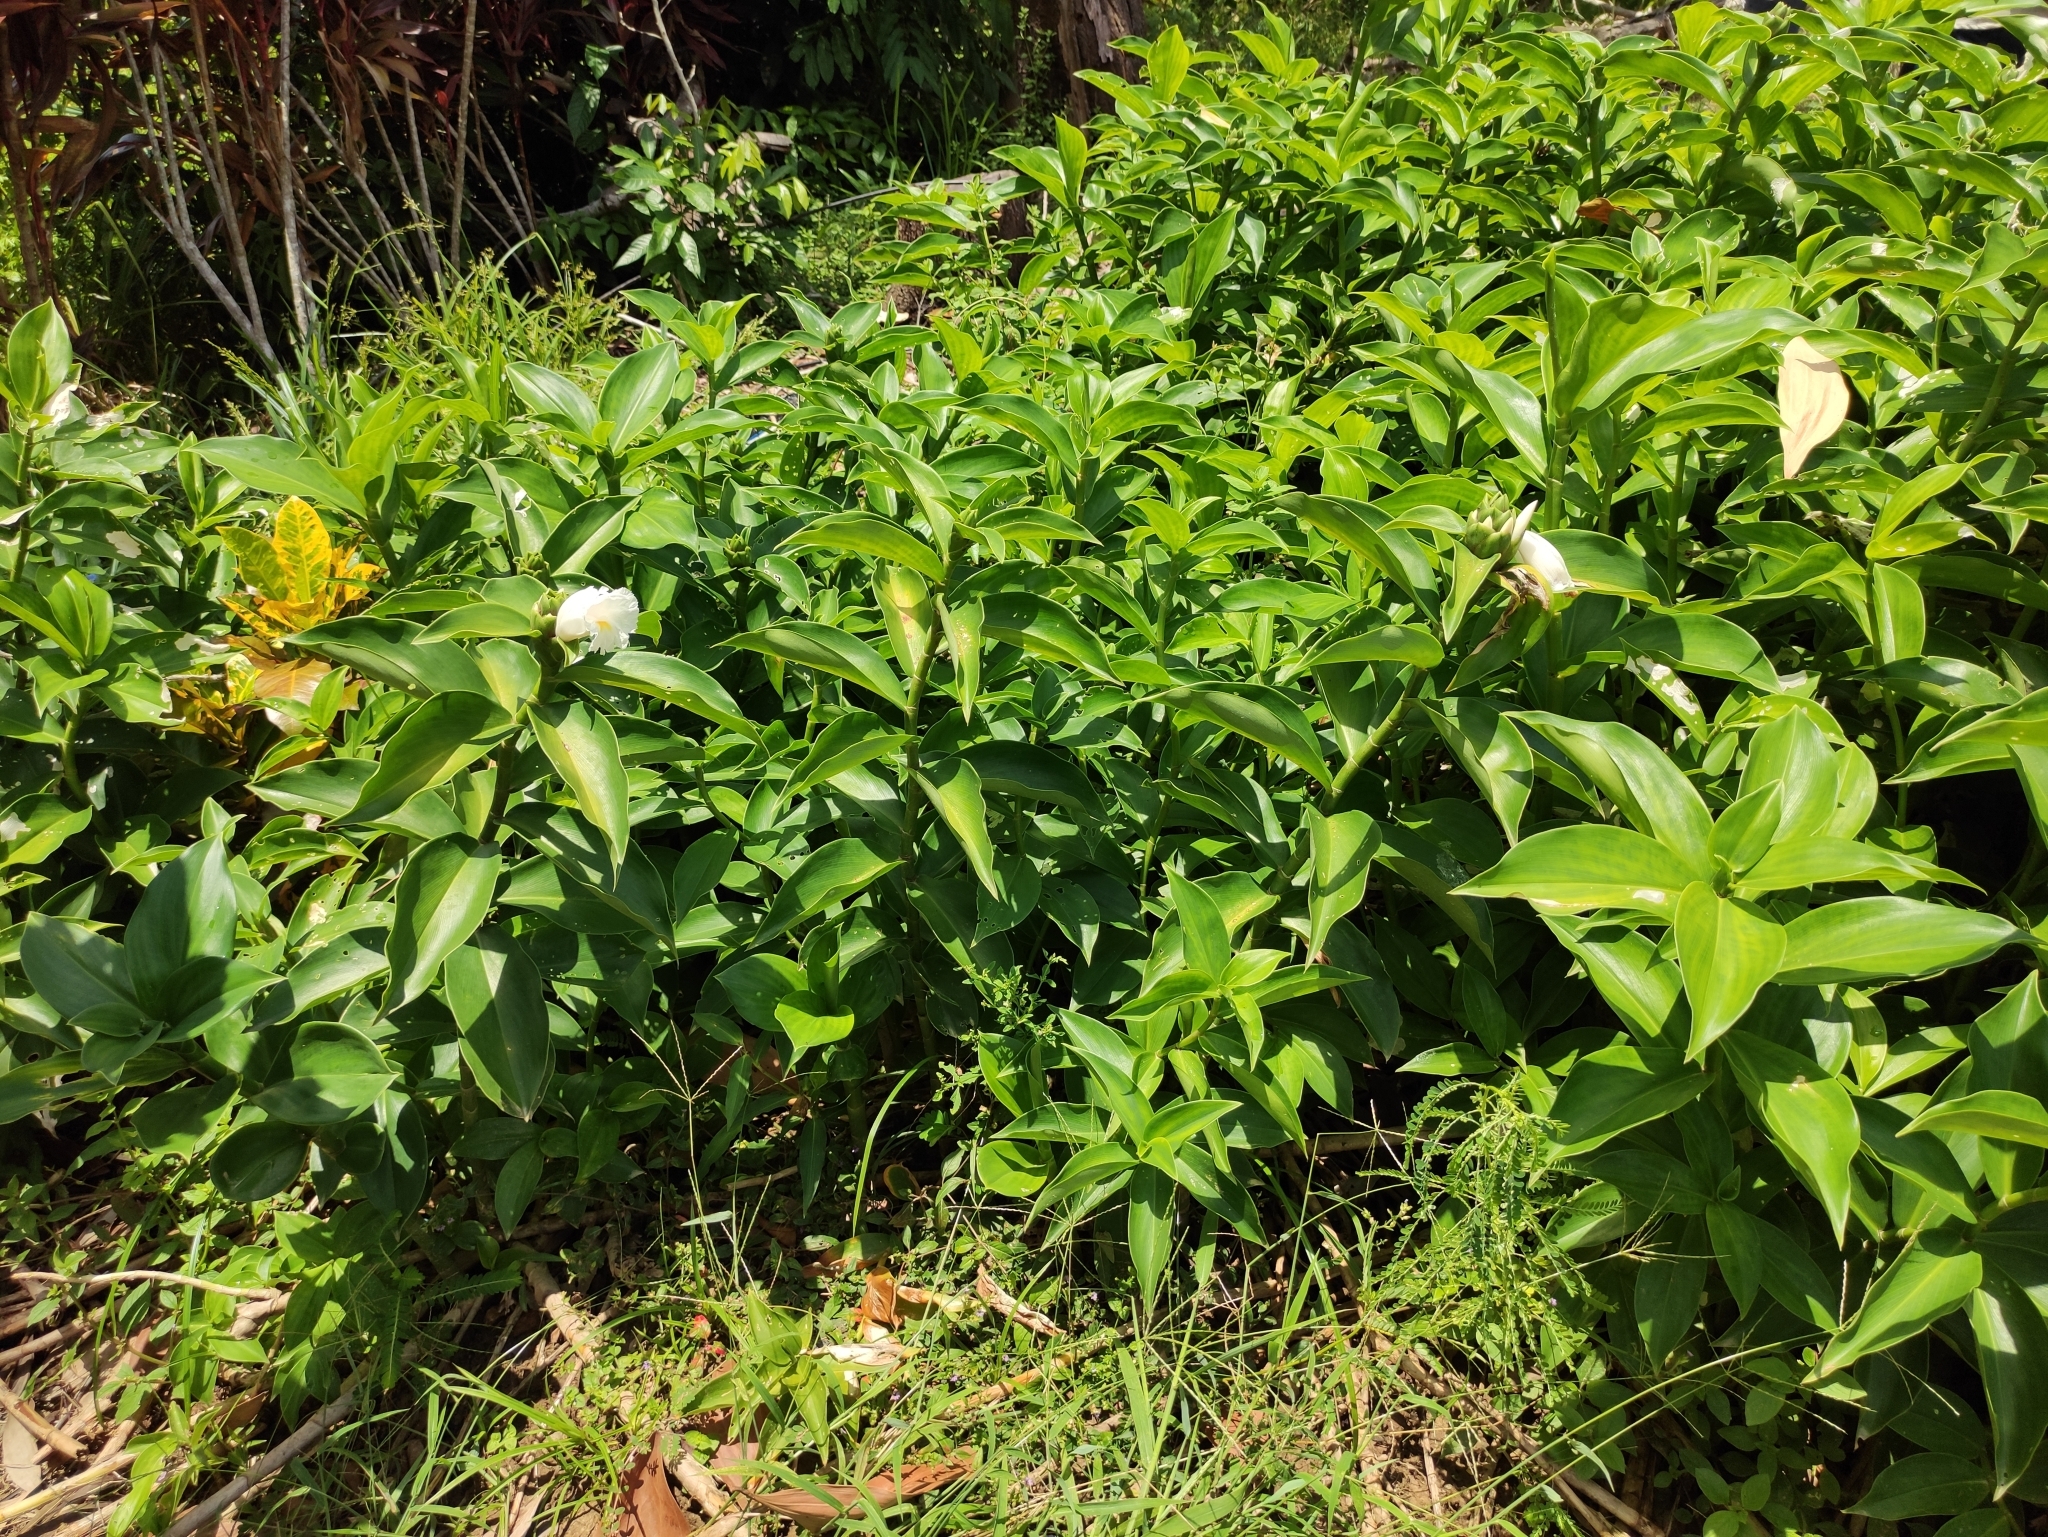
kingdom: Plantae
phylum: Tracheophyta
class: Liliopsida
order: Zingiberales
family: Costaceae
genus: Dimerocostus
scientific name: Dimerocostus strobilaceus
